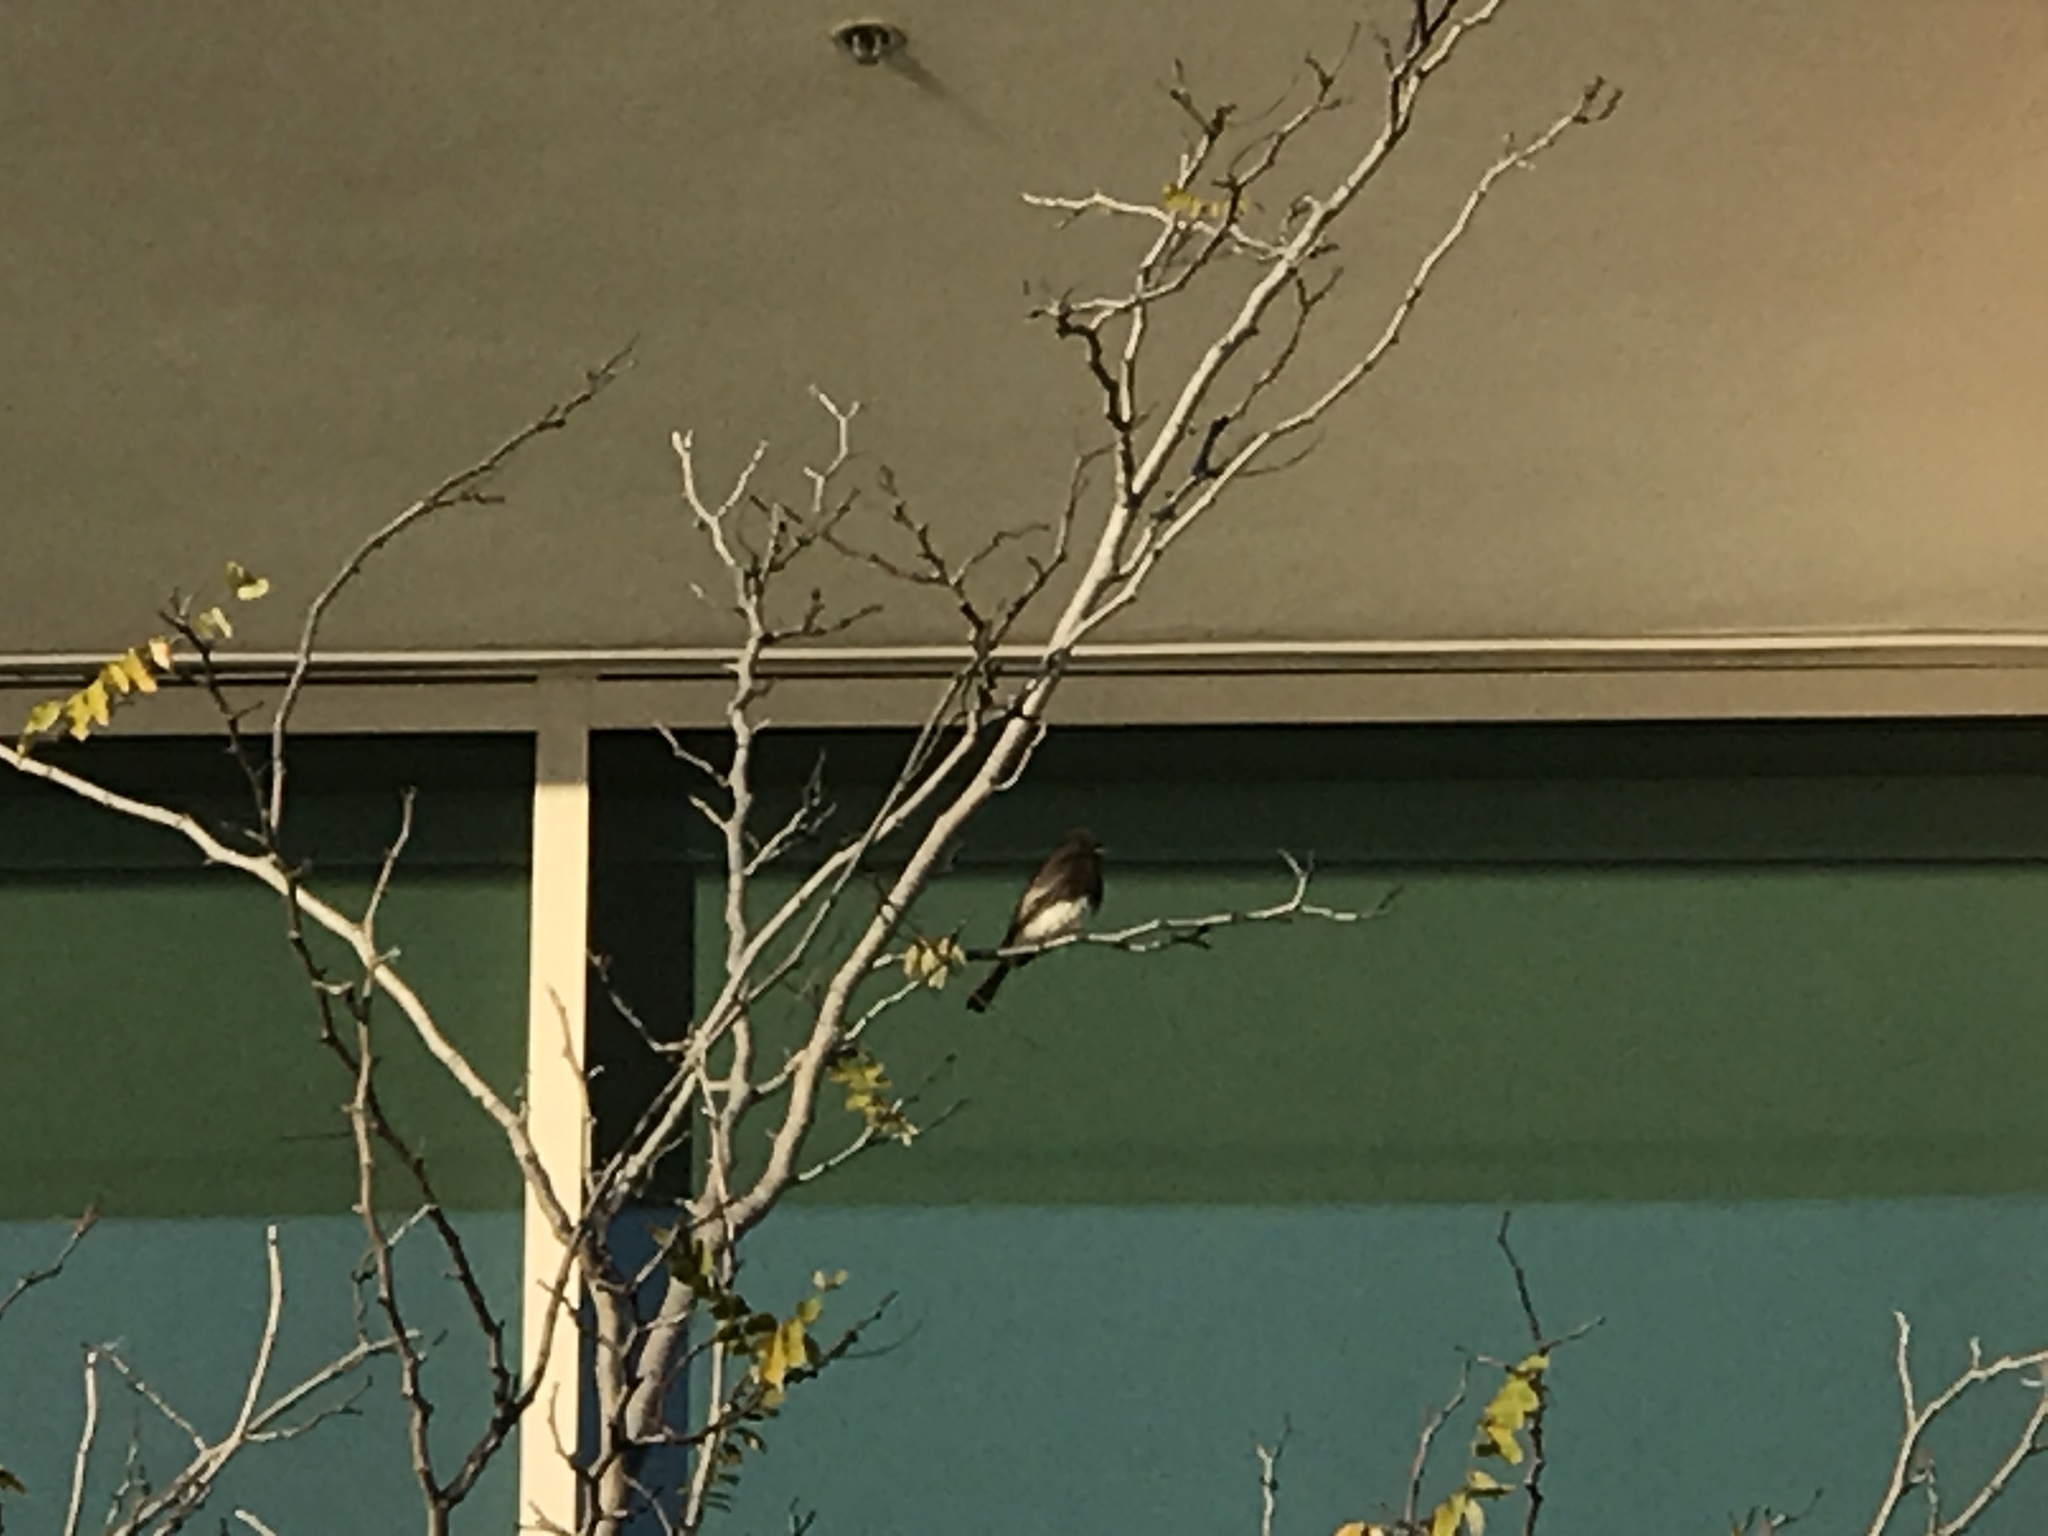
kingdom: Animalia
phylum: Chordata
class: Aves
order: Passeriformes
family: Tyrannidae
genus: Sayornis
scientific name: Sayornis nigricans
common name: Black phoebe
